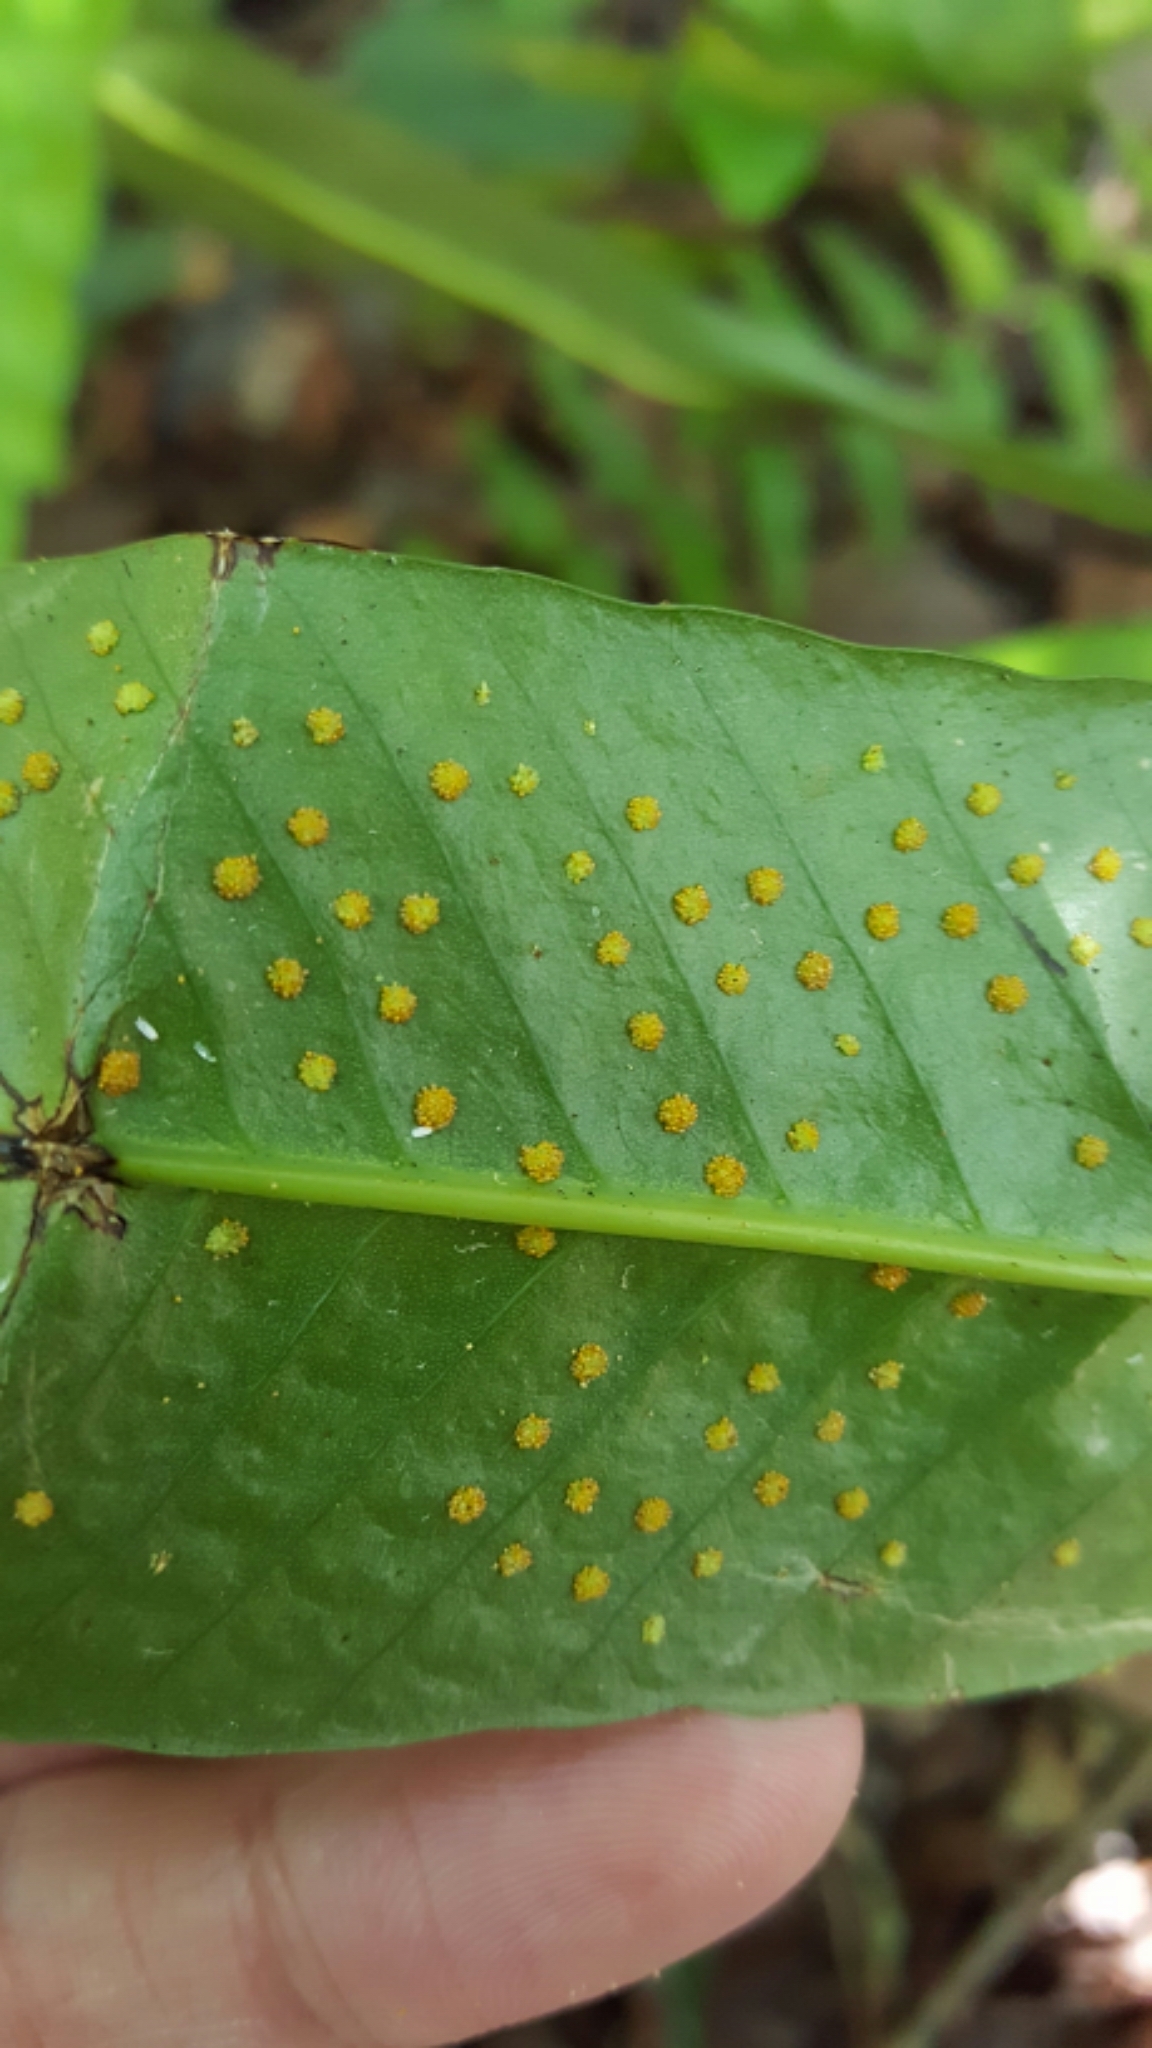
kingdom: Plantae
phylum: Tracheophyta
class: Polypodiopsida
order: Polypodiales
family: Polypodiaceae
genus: Campyloneurum
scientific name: Campyloneurum phyllitidis
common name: Cow-tongue fern
